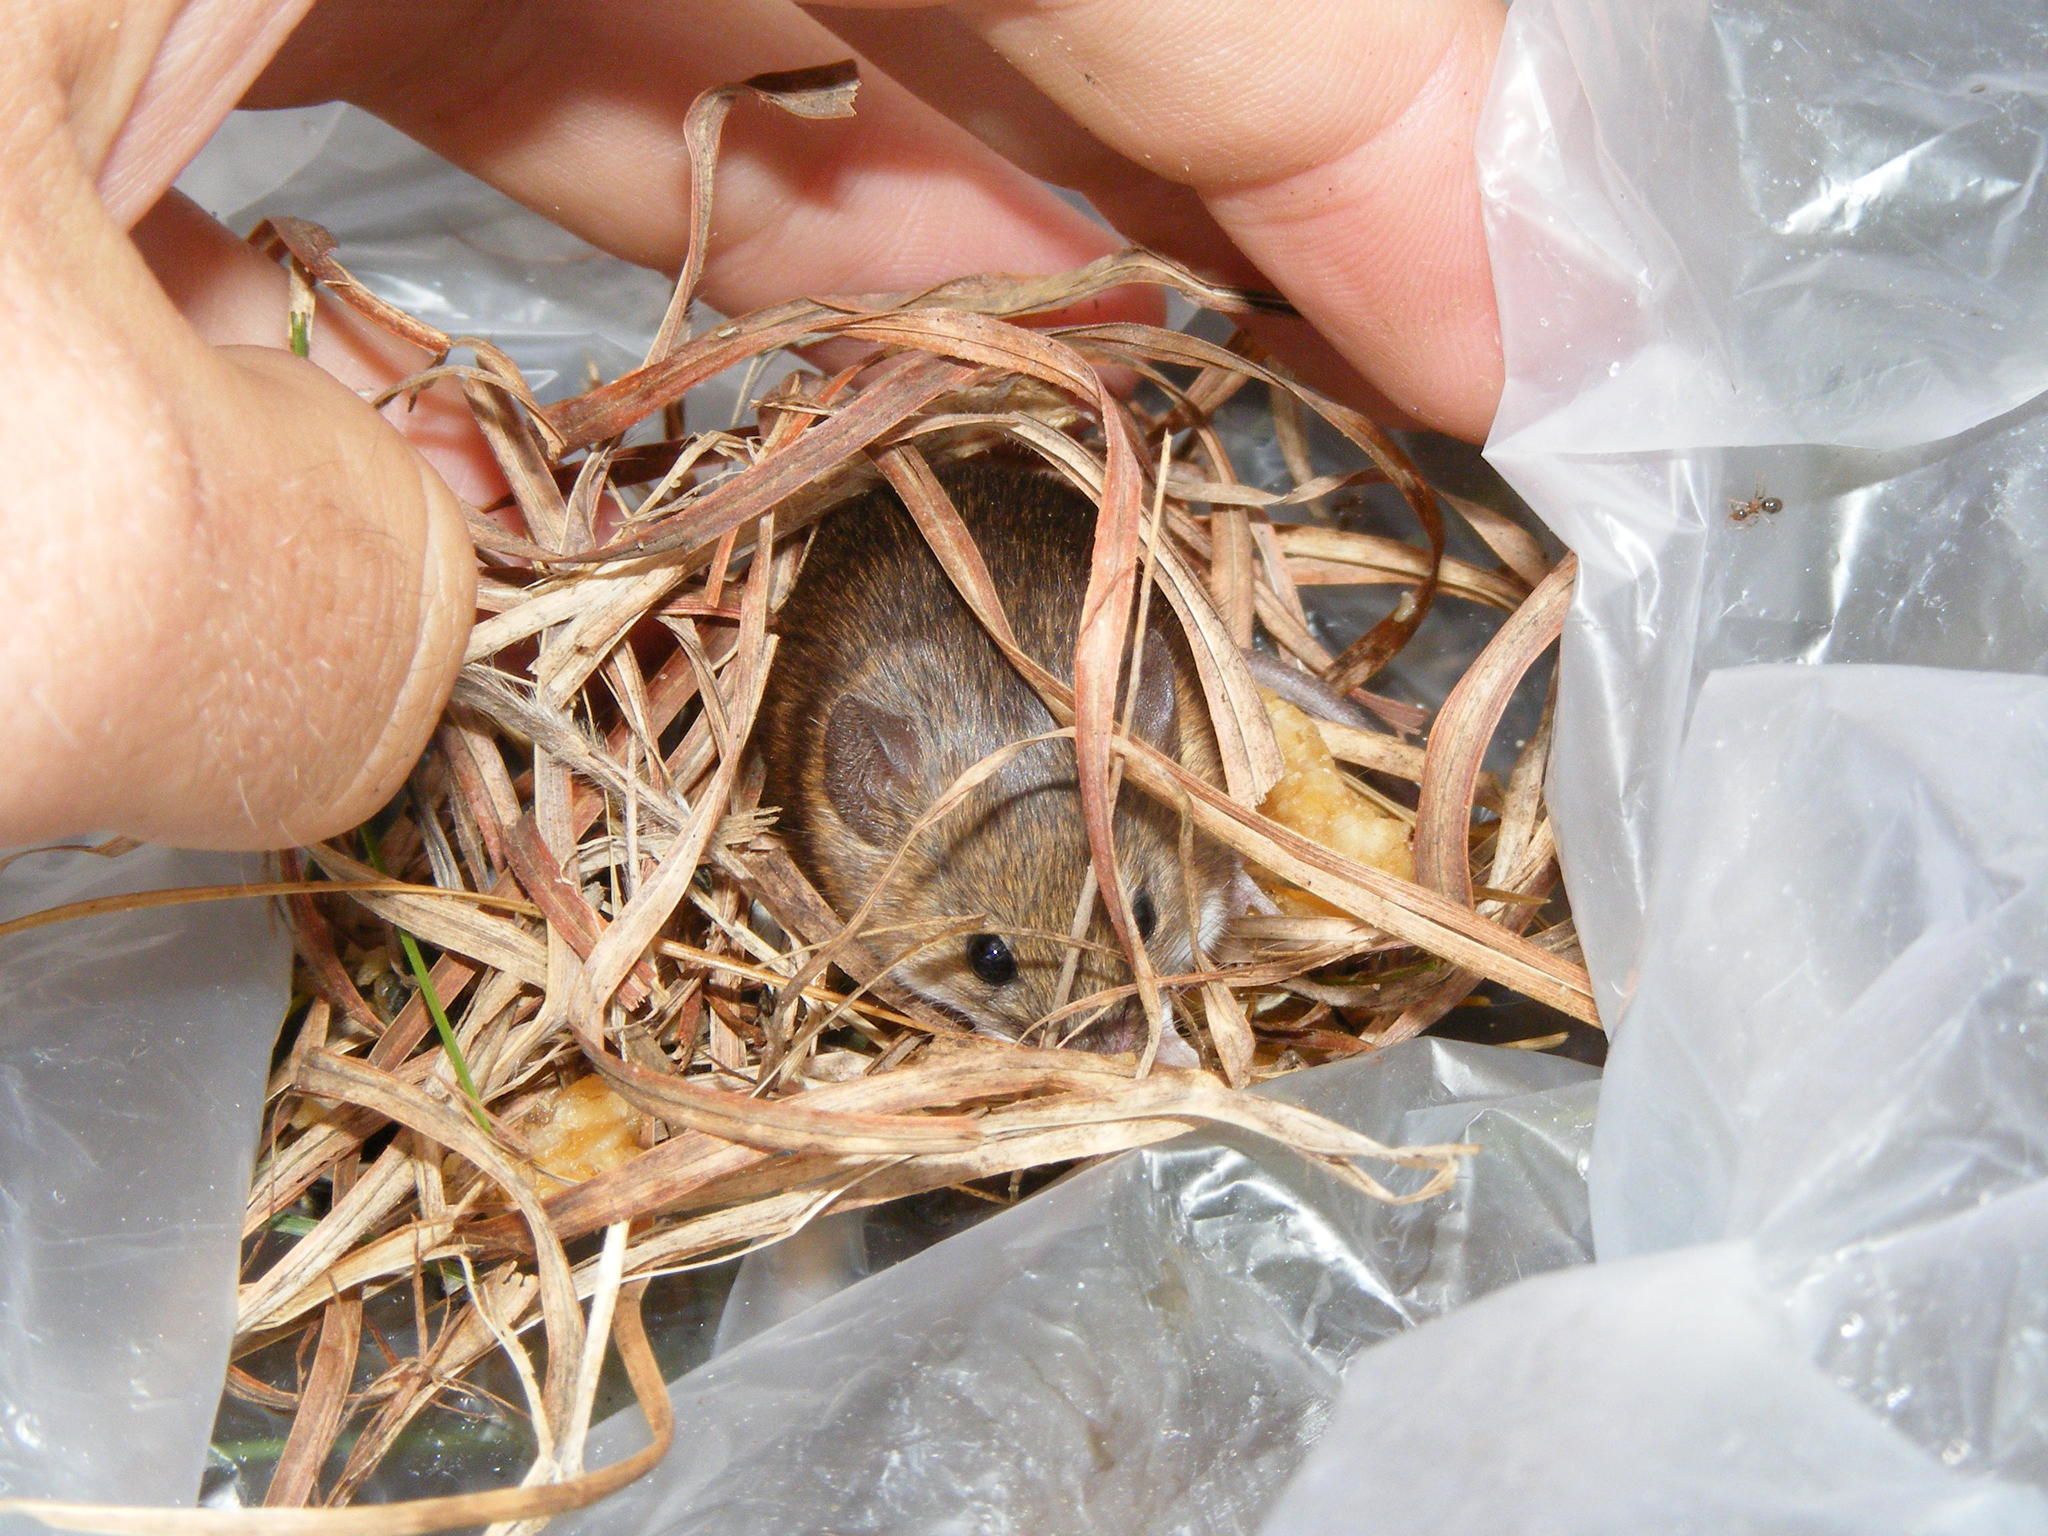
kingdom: Animalia
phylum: Chordata
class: Mammalia
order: Rodentia
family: Muridae
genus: Mus
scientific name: Mus minutoides
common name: Southern african pygmy mouse
